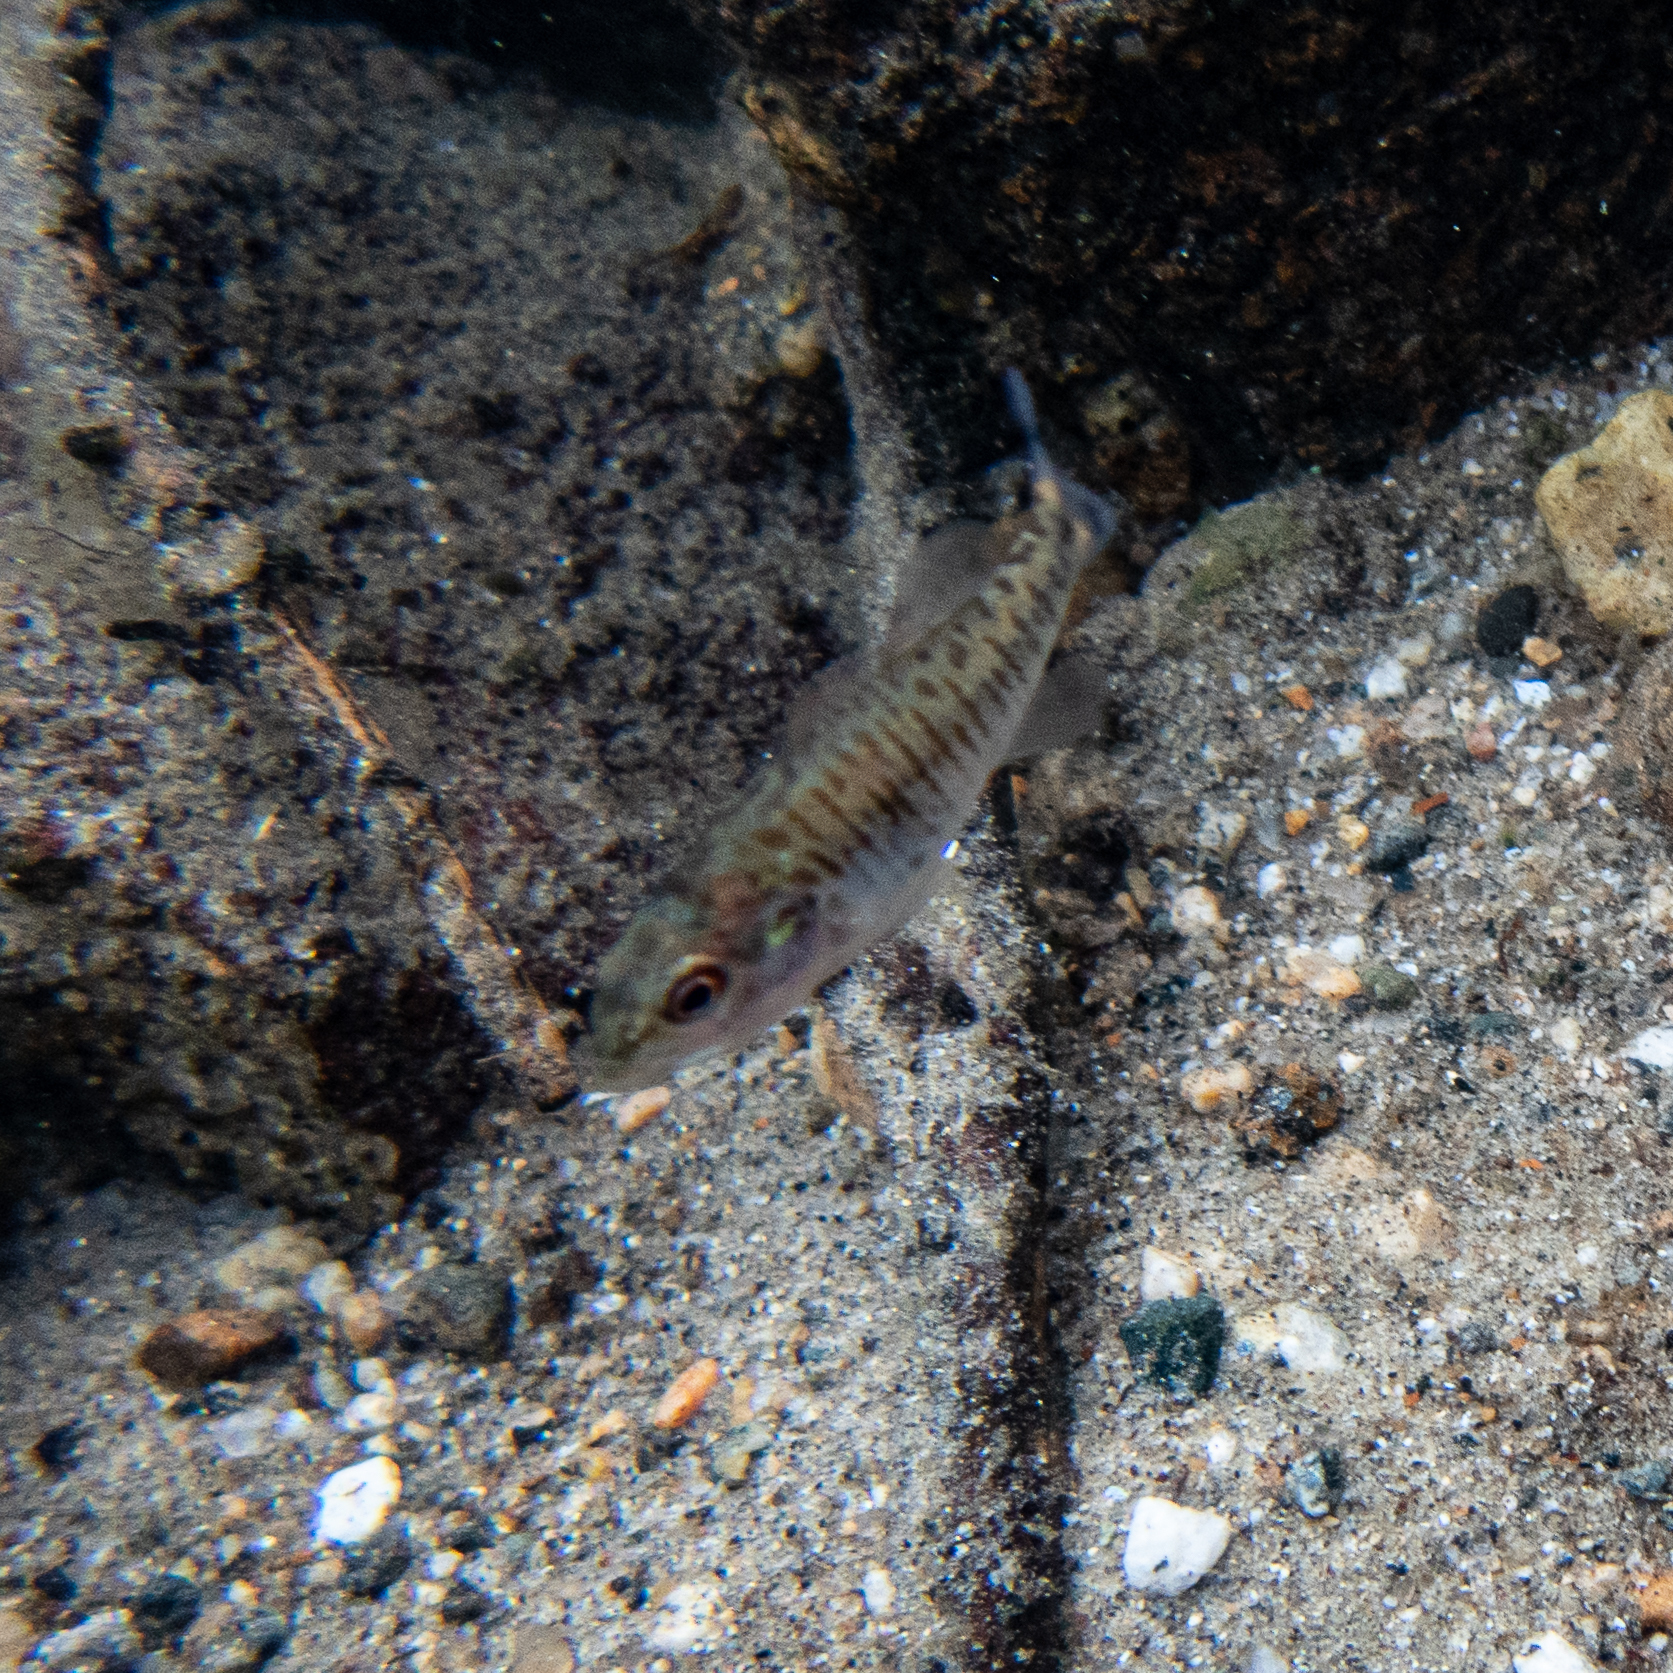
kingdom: Animalia
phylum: Chordata
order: Perciformes
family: Centrarchidae
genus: Micropterus
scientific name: Micropterus dolomieu
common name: Smallmouth bass
